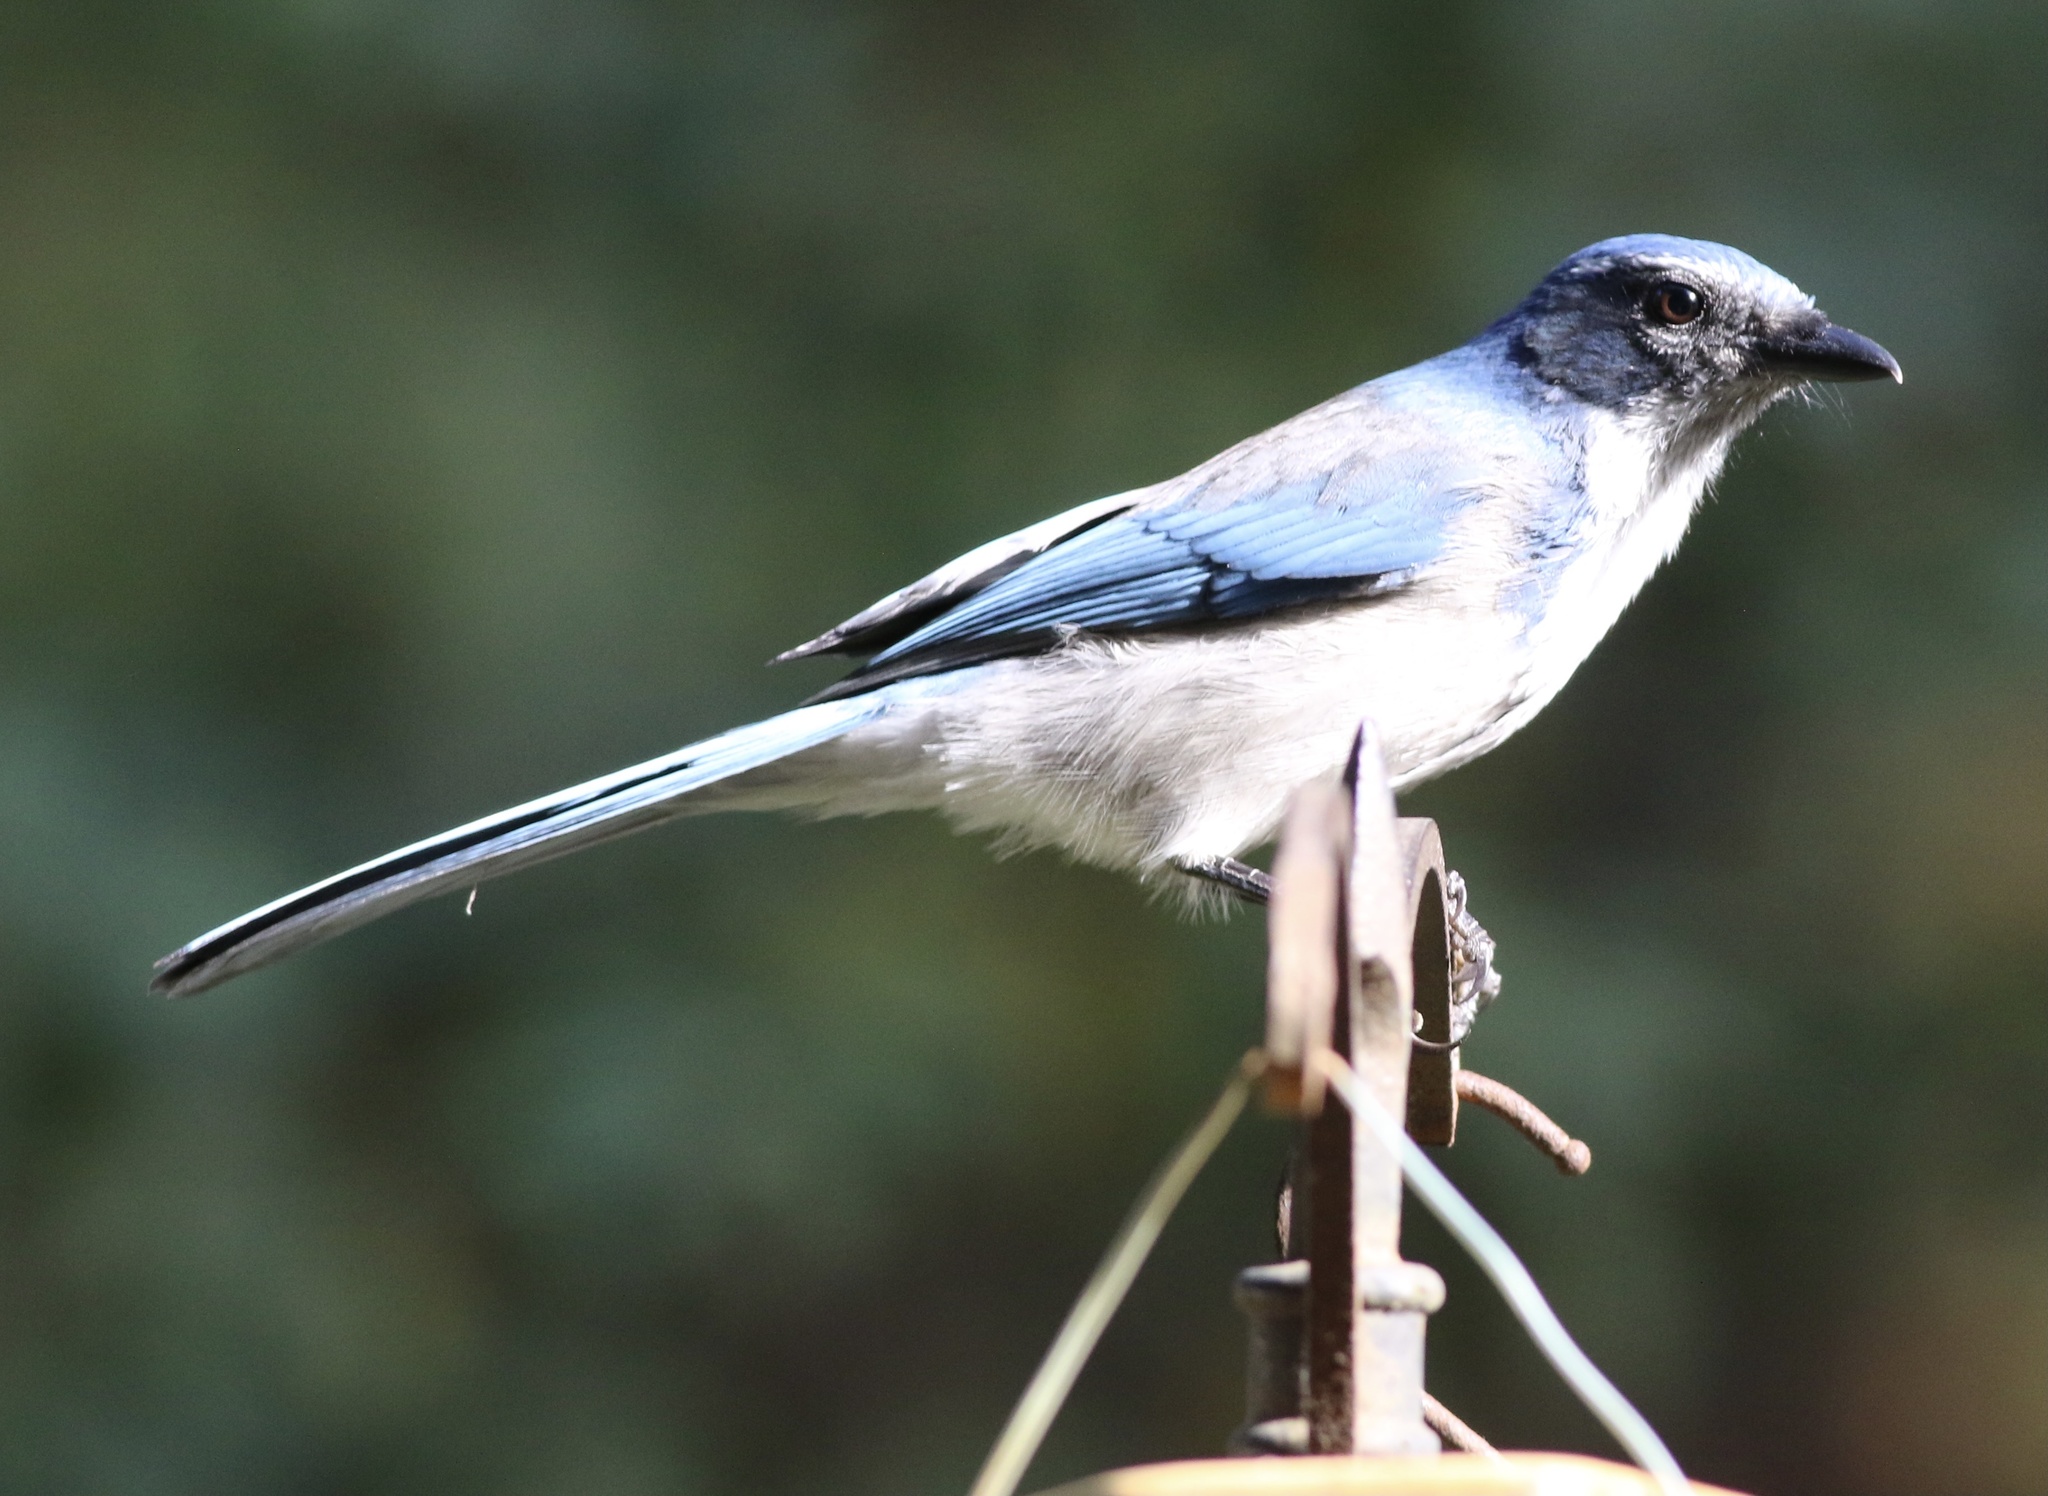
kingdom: Animalia
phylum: Chordata
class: Aves
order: Passeriformes
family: Corvidae
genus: Aphelocoma
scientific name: Aphelocoma californica
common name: California scrub-jay
